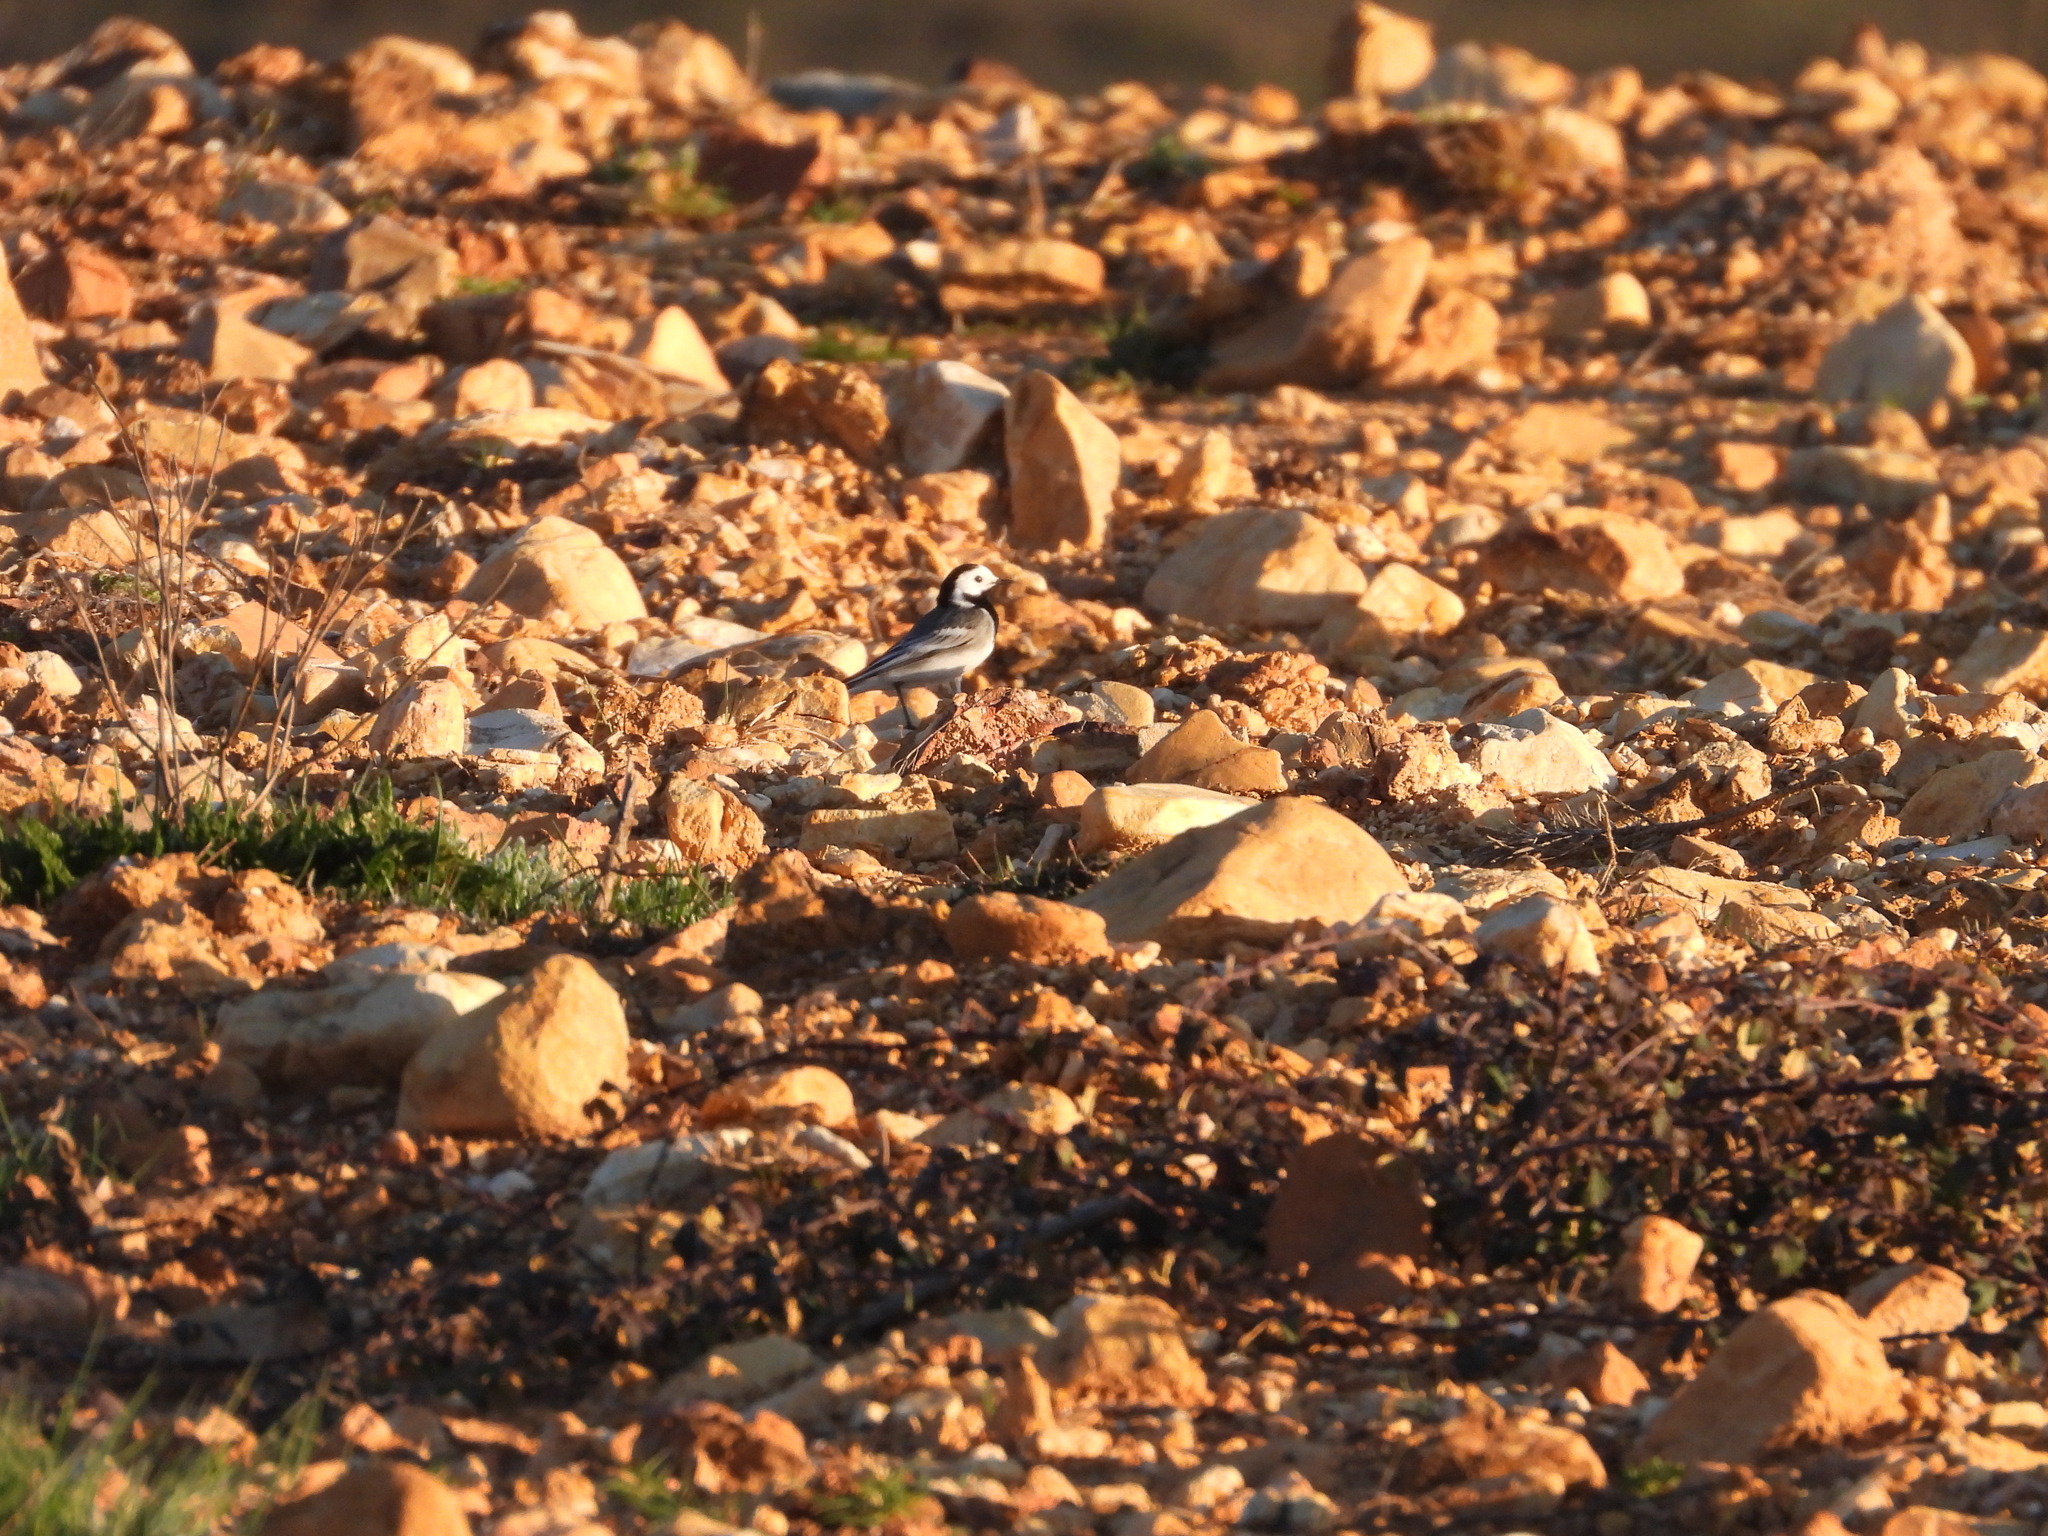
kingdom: Animalia
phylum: Chordata
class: Aves
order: Passeriformes
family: Motacillidae
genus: Motacilla
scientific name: Motacilla alba
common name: White wagtail
